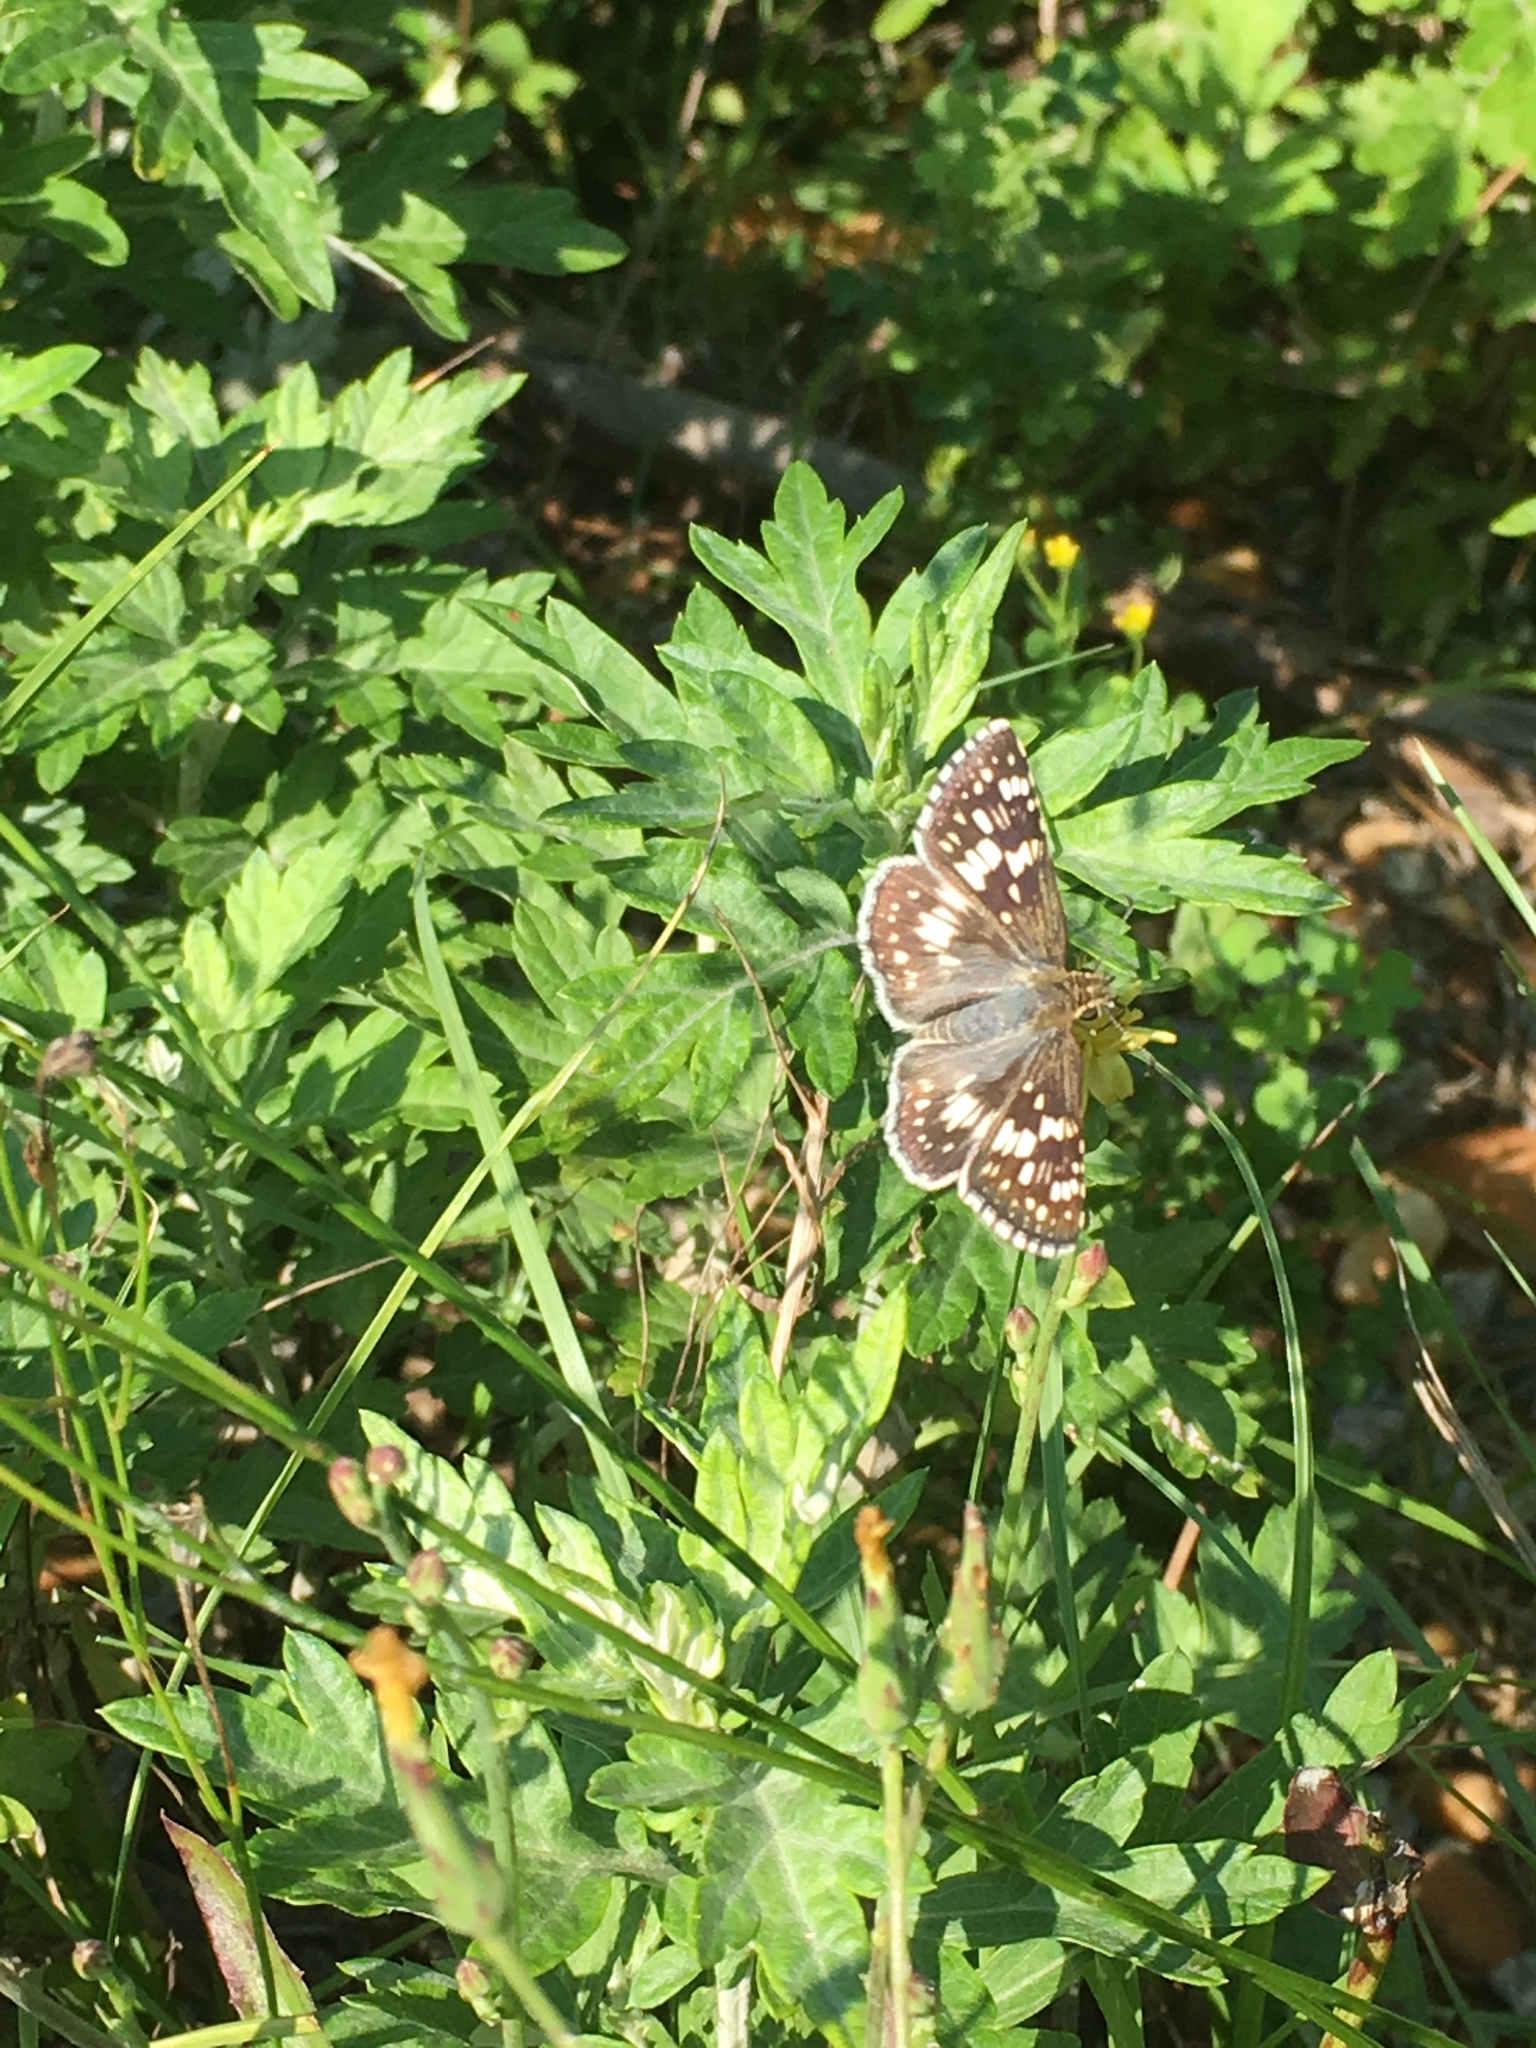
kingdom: Animalia
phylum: Arthropoda
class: Insecta
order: Lepidoptera
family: Hesperiidae
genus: Burnsius
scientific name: Burnsius communis
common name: Common checkered-skipper
